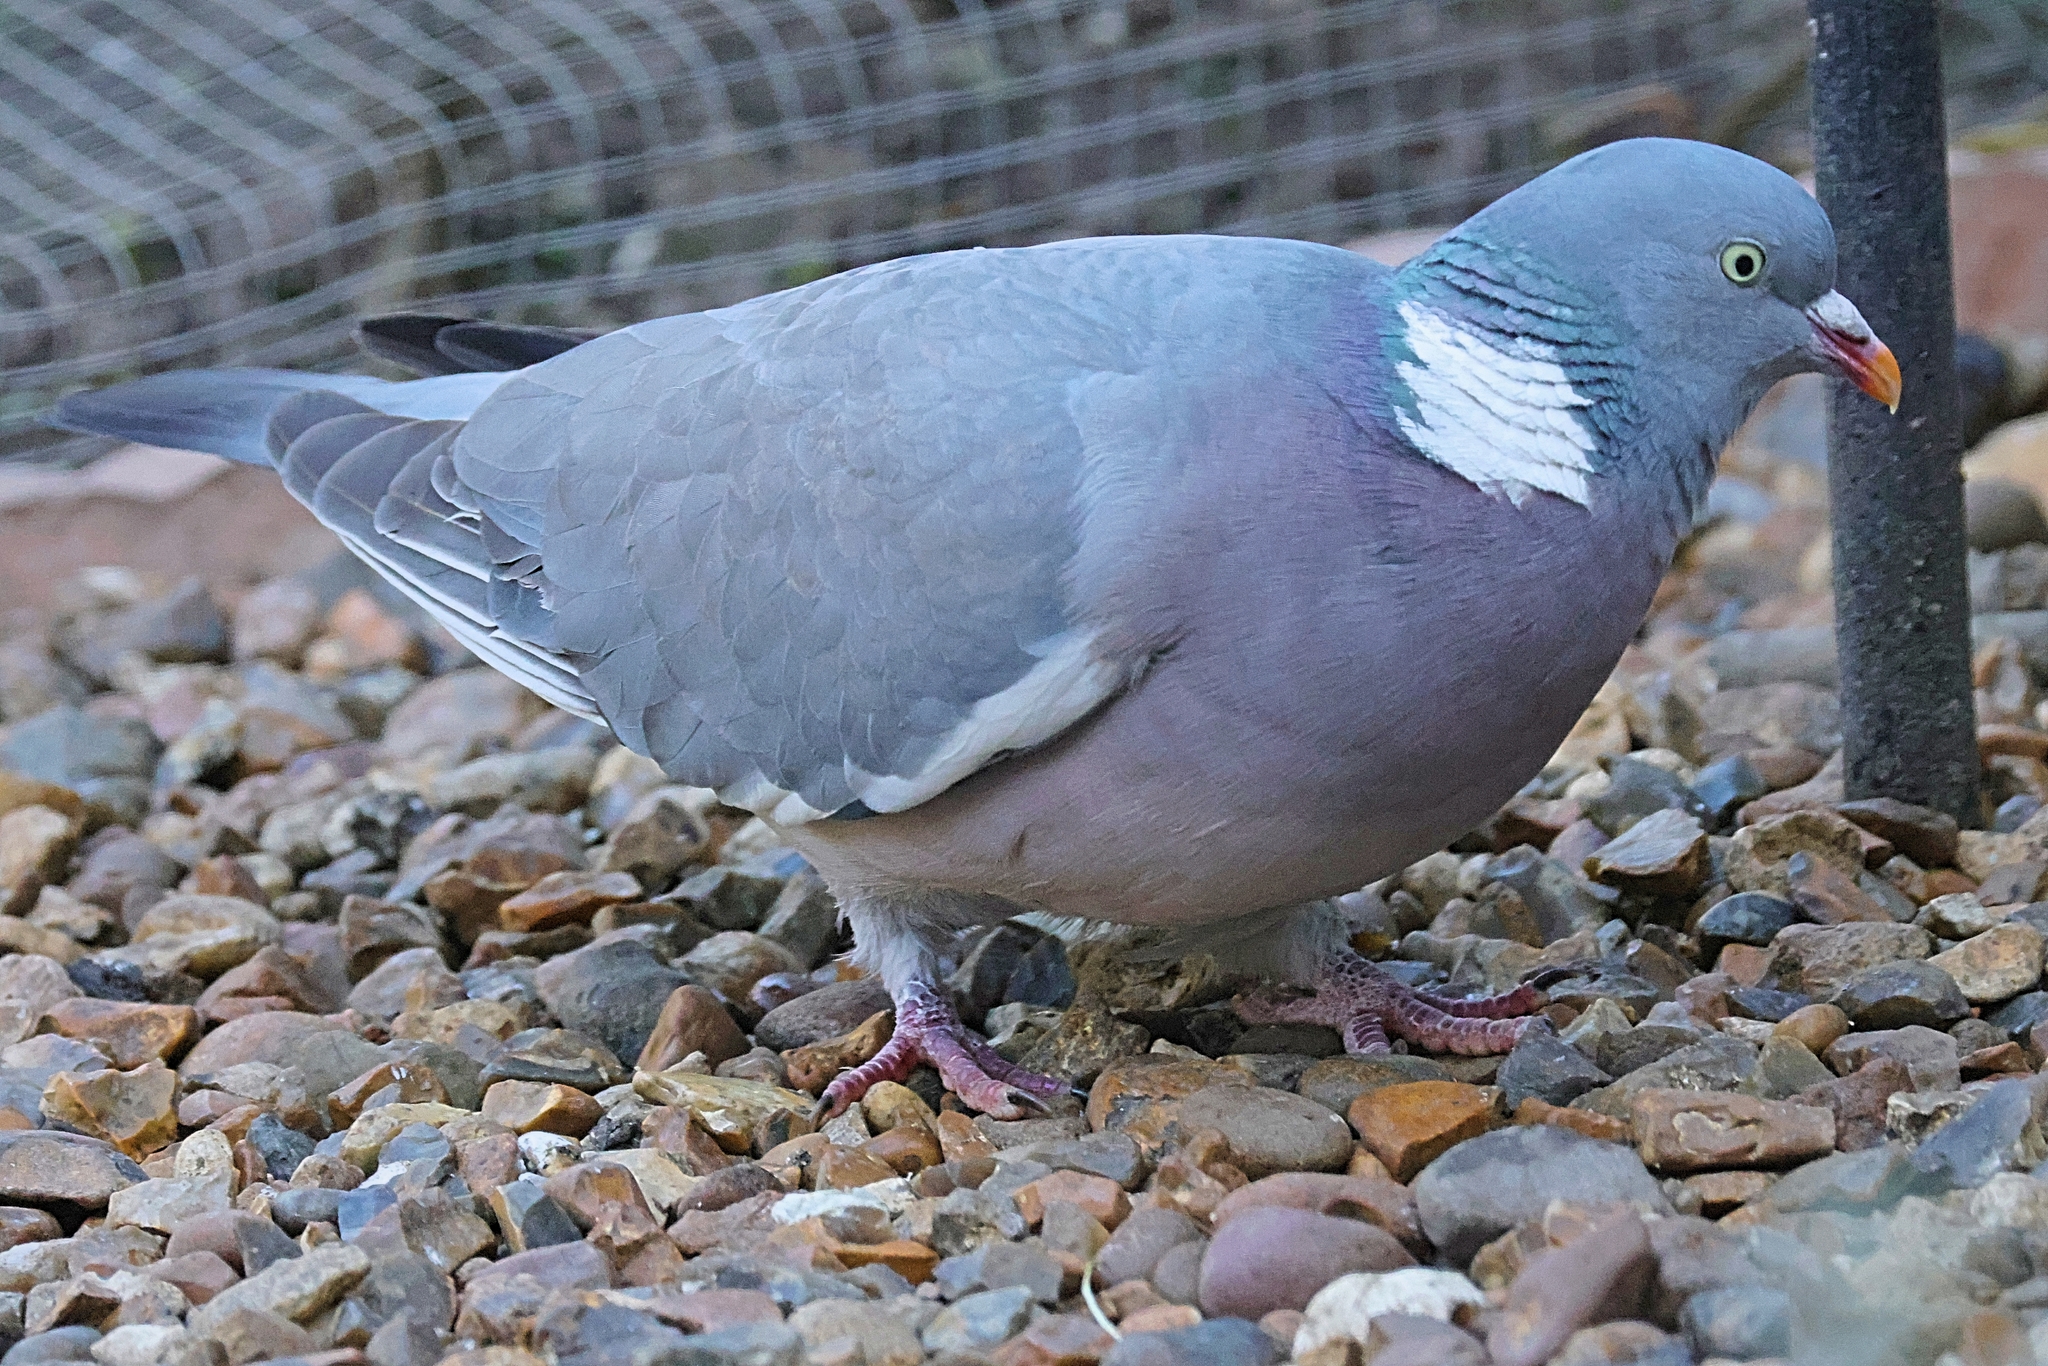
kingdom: Animalia
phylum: Chordata
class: Aves
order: Columbiformes
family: Columbidae
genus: Columba
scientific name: Columba palumbus
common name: Common wood pigeon
